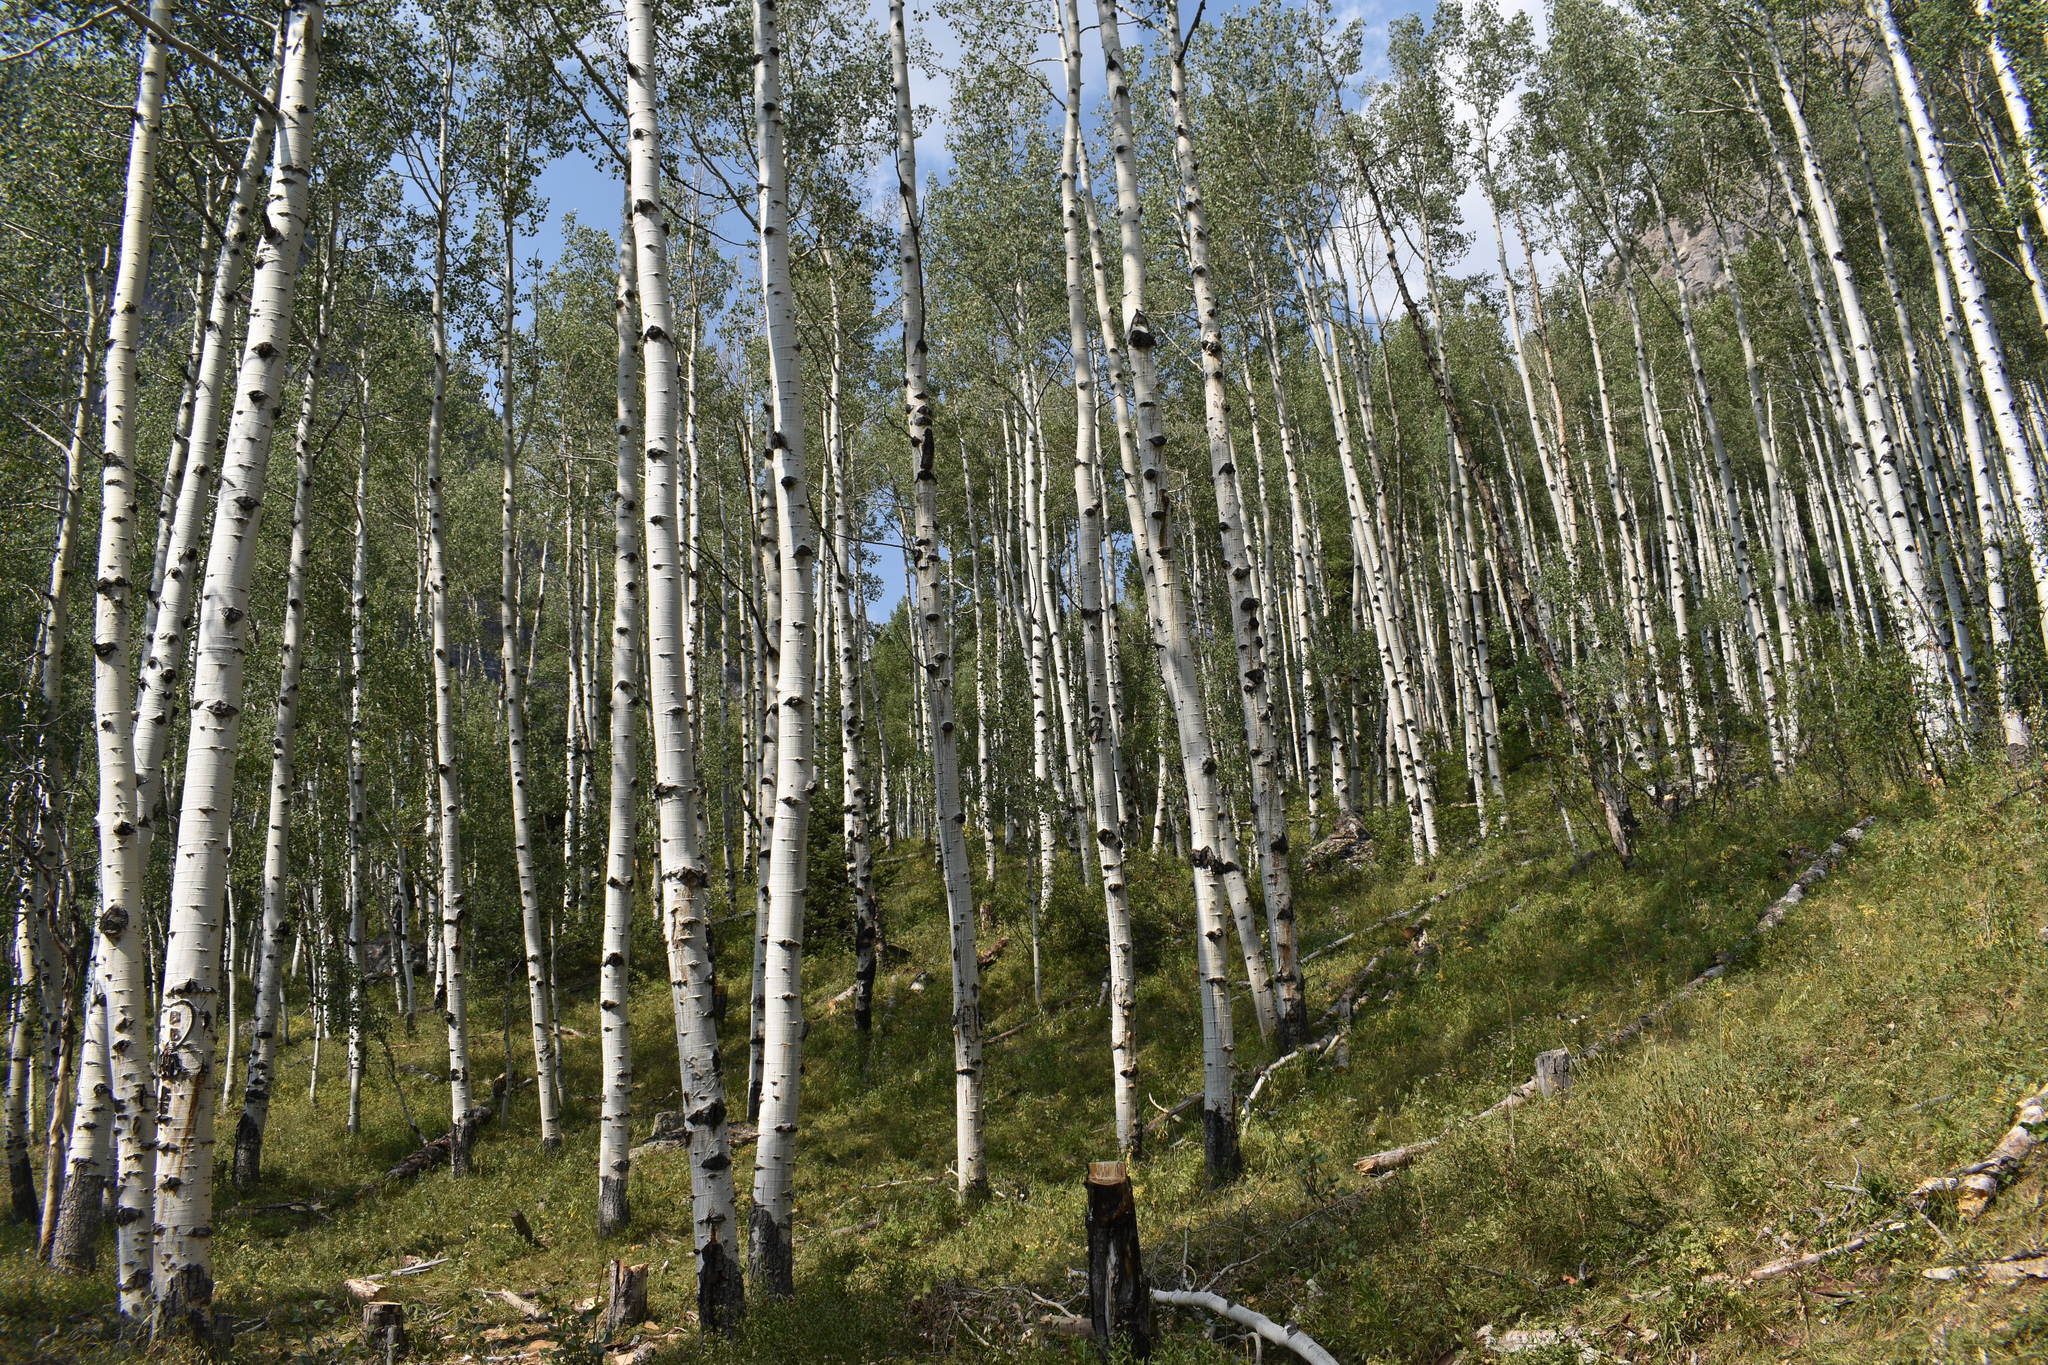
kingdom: Plantae
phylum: Tracheophyta
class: Magnoliopsida
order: Malpighiales
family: Salicaceae
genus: Populus
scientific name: Populus tremuloides
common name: Quaking aspen
